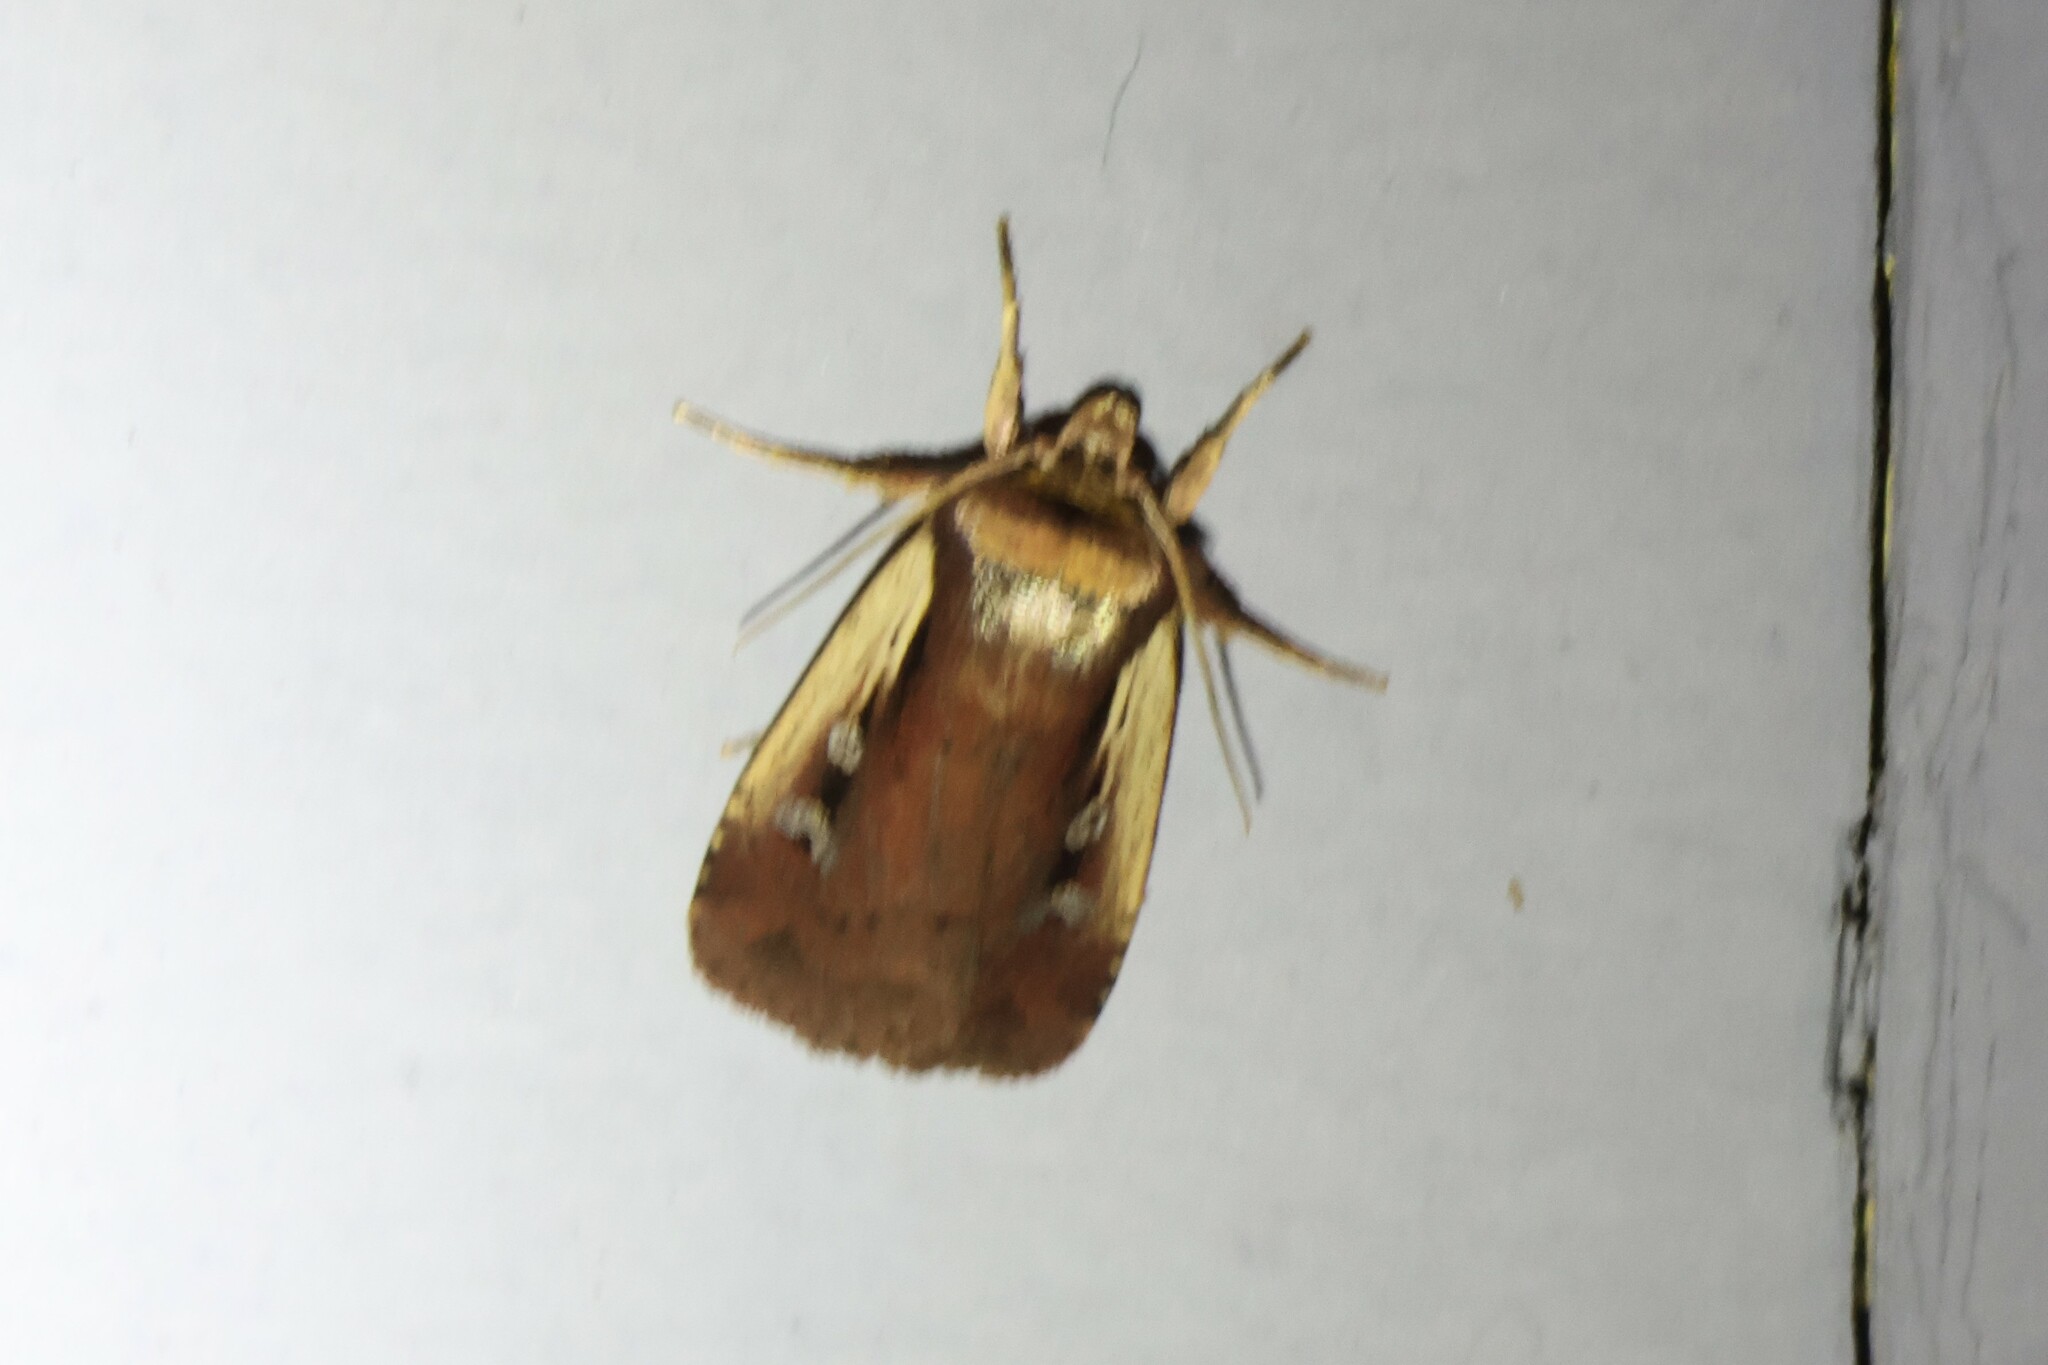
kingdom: Animalia
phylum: Arthropoda
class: Insecta
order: Lepidoptera
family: Noctuidae
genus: Ochropleura
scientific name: Ochropleura implecta
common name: Flame-shouldered dart
